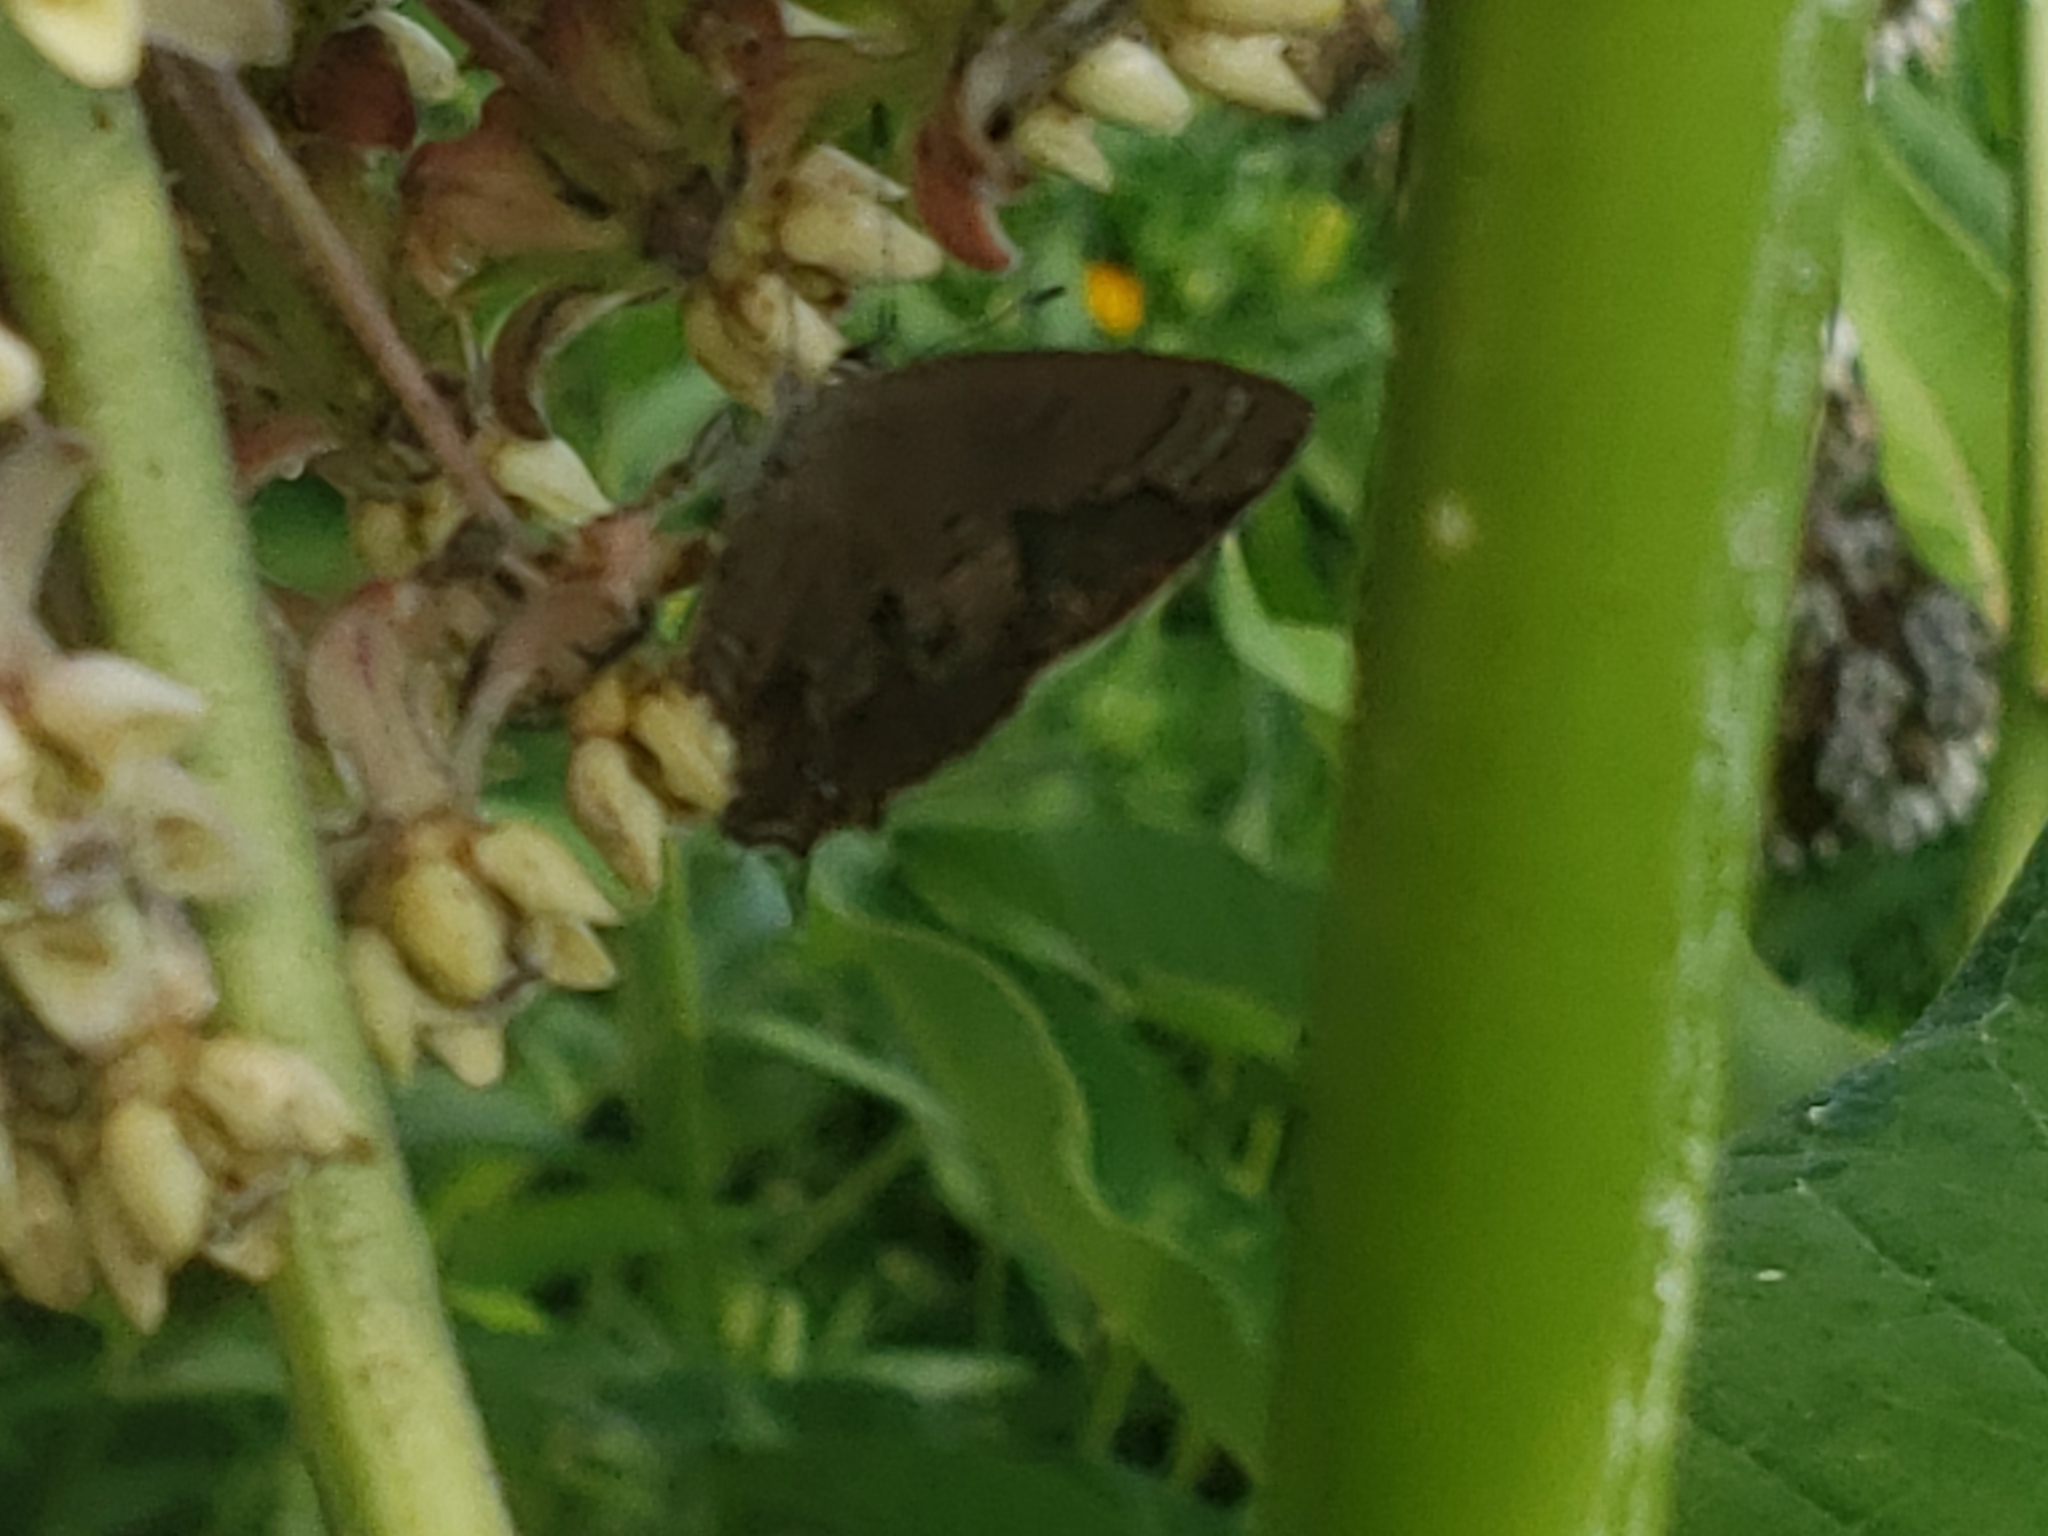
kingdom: Animalia
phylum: Arthropoda
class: Insecta
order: Lepidoptera
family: Lycaenidae
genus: Satyrium
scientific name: Satyrium calanus
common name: Banded hairstreak
